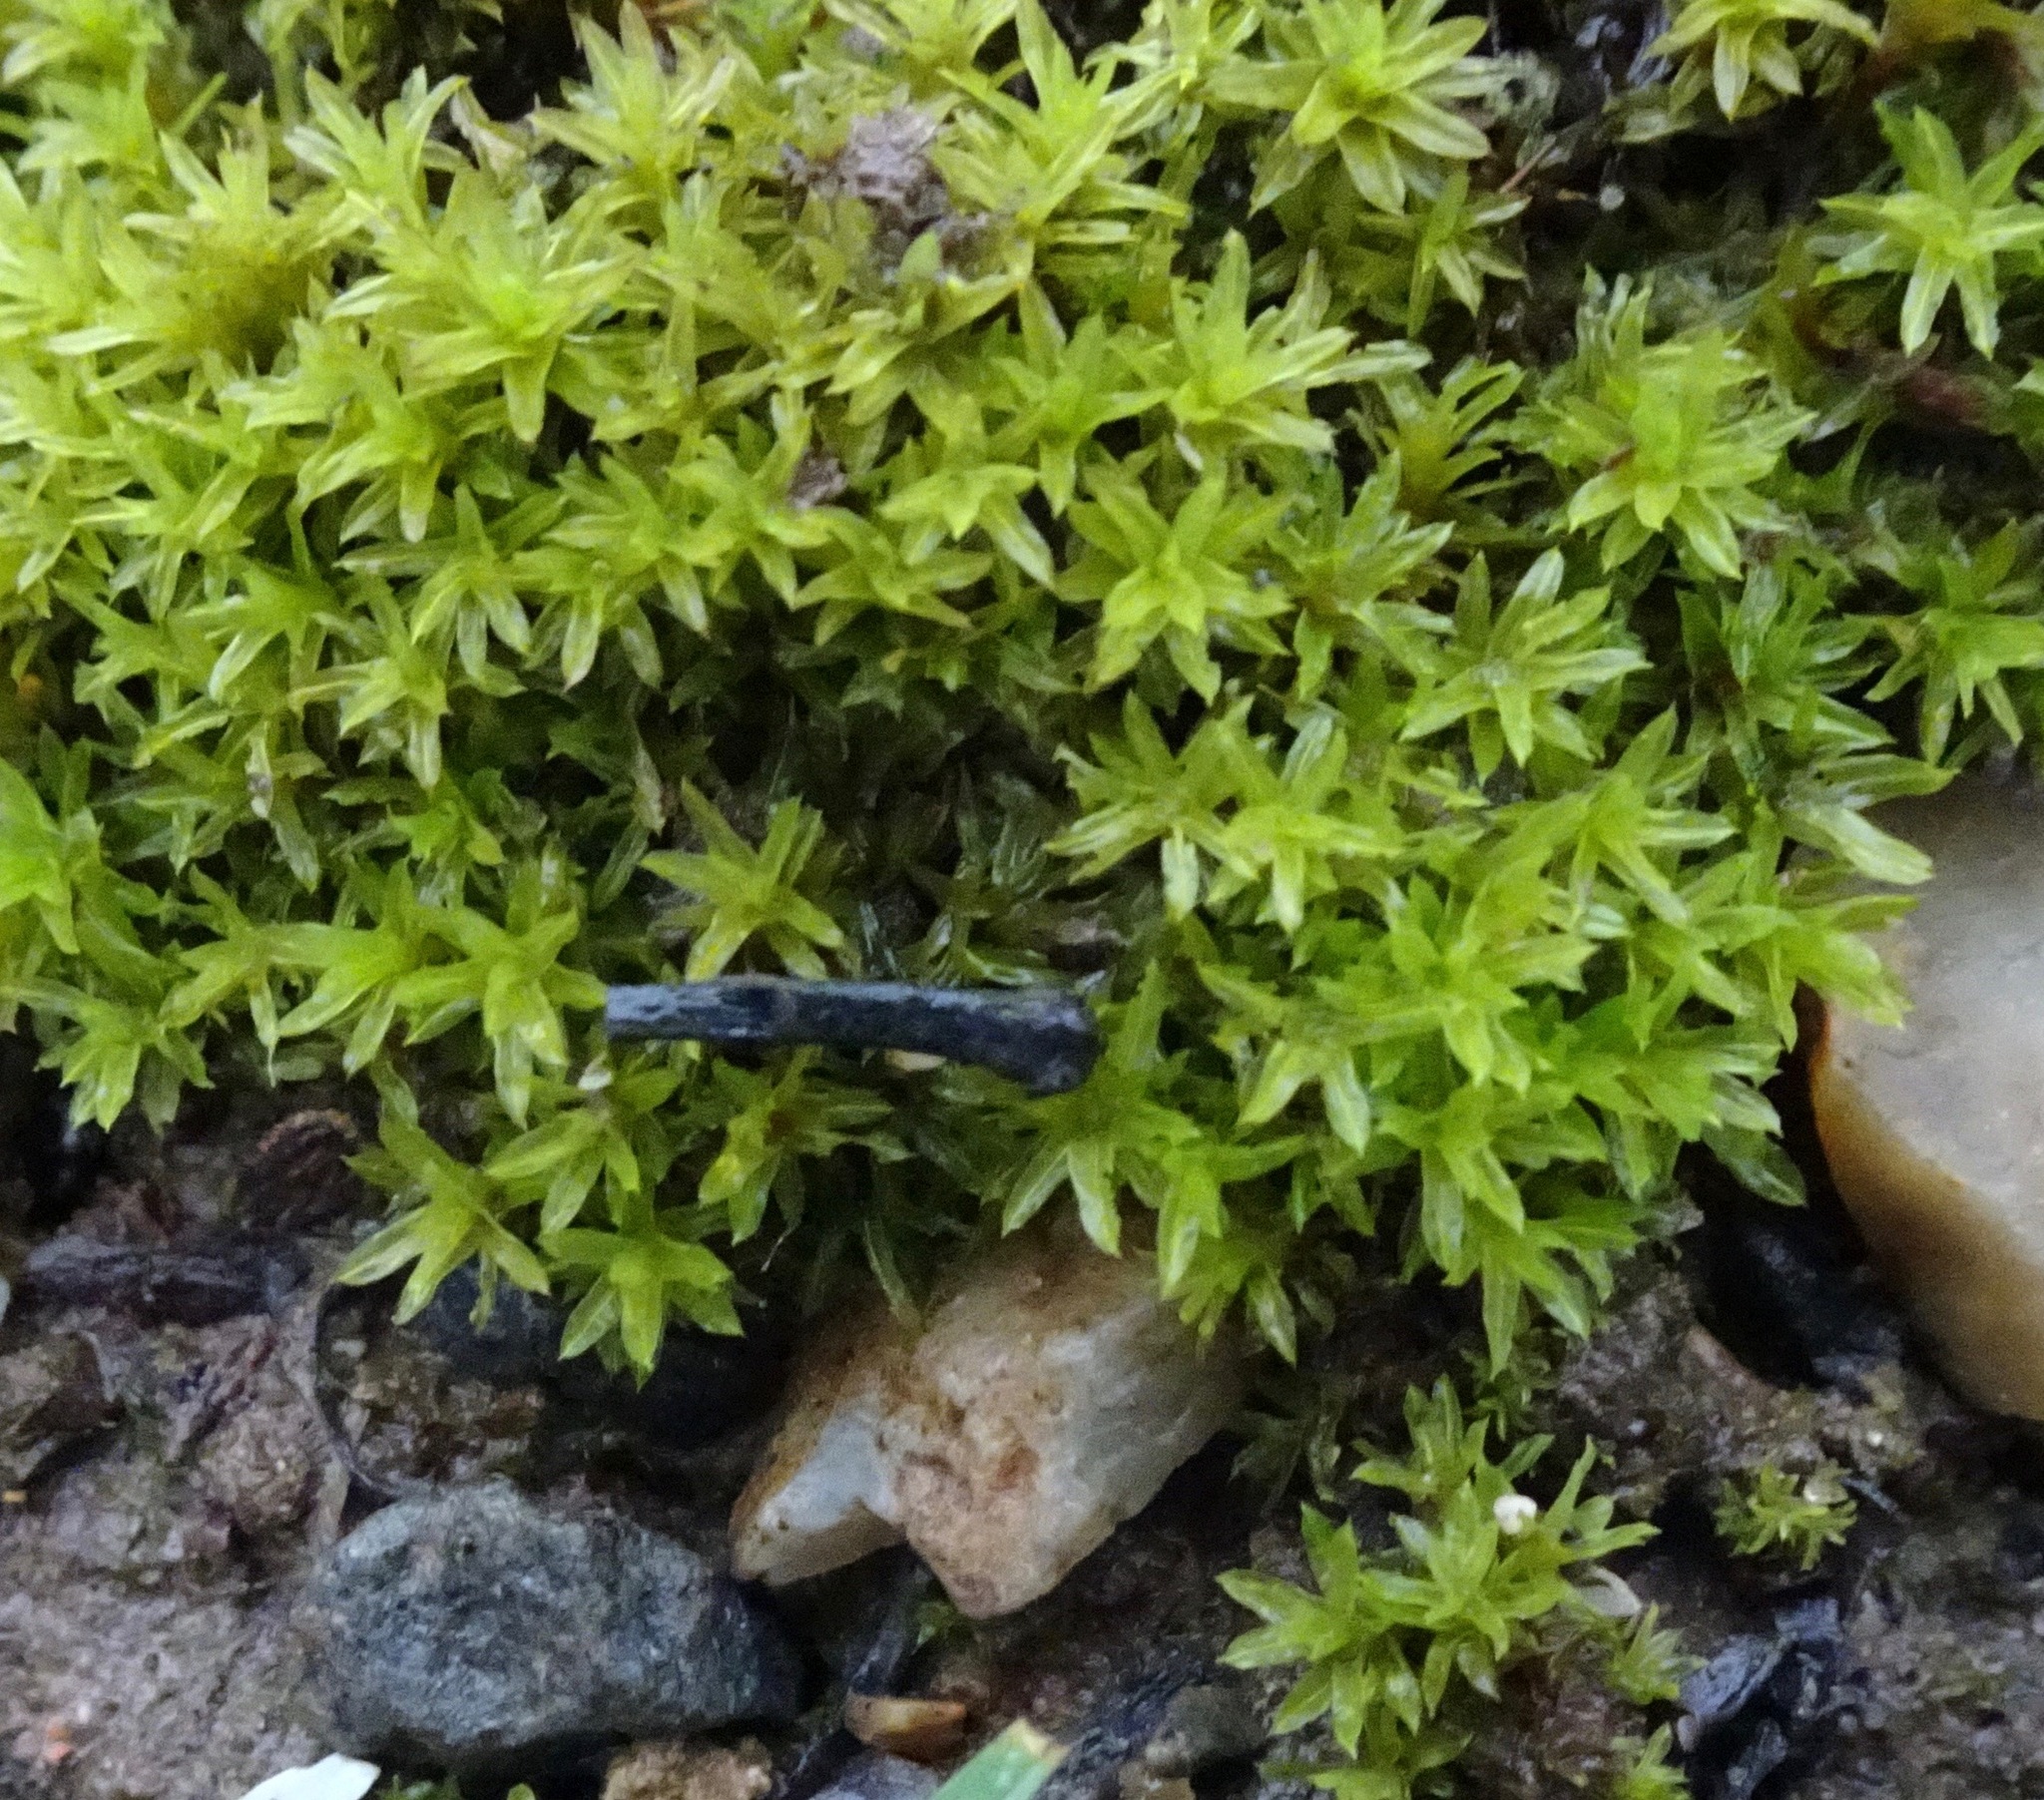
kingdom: Plantae
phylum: Bryophyta
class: Bryopsida
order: Pottiales
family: Pottiaceae
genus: Barbula
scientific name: Barbula unguiculata
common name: Prickly beard moss
